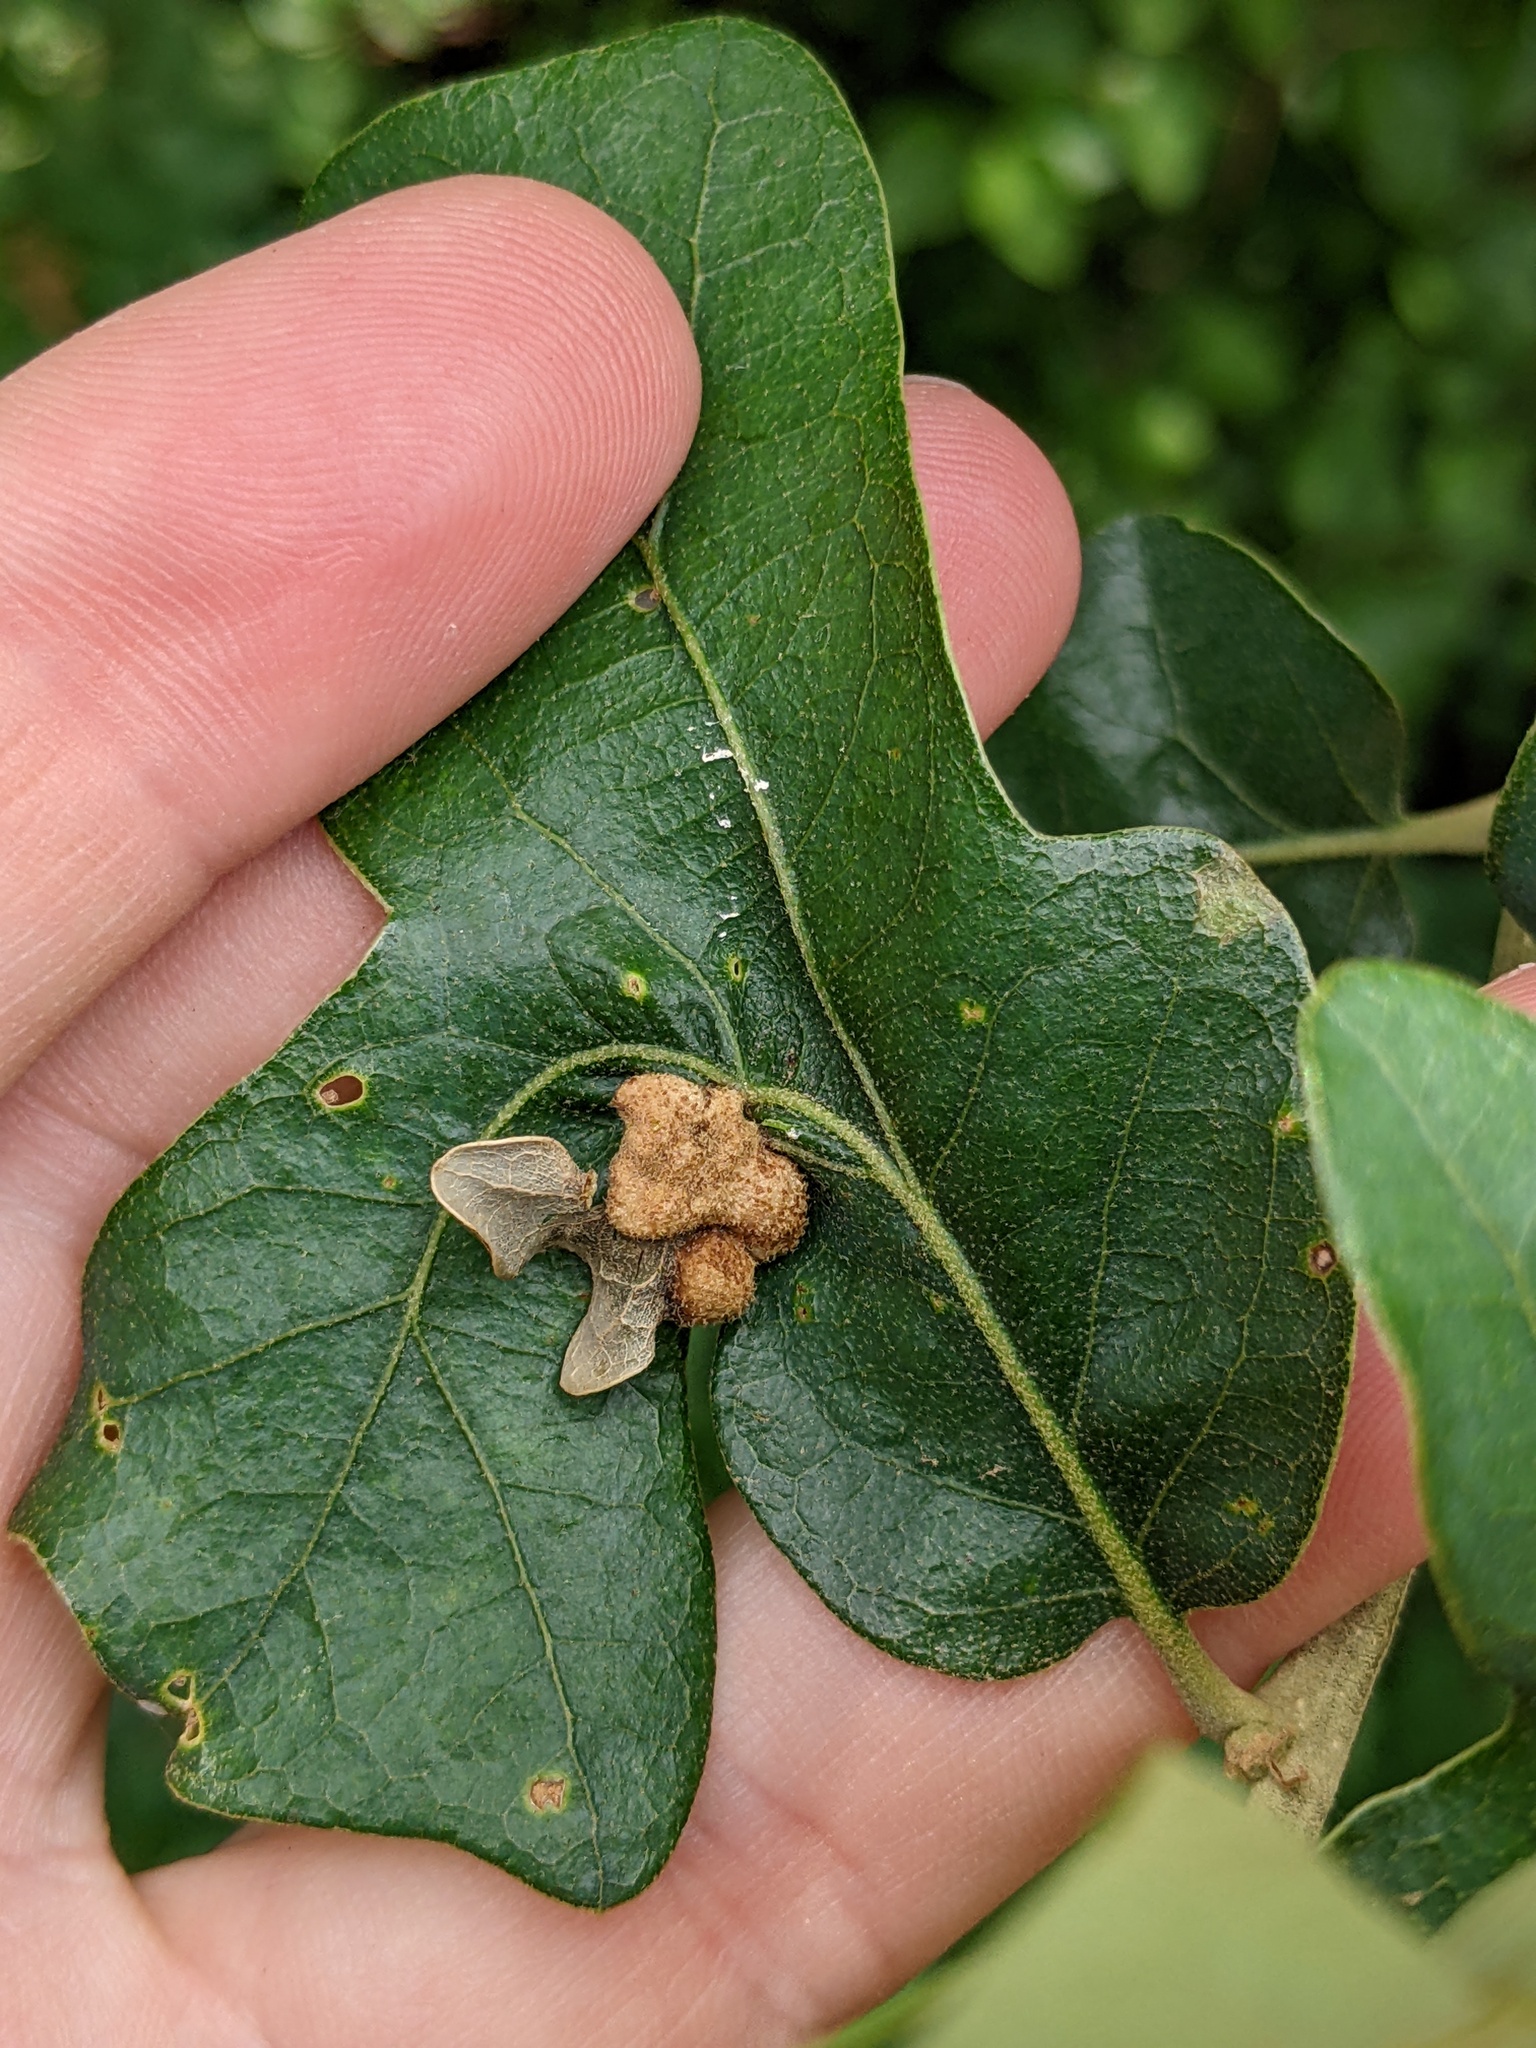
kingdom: Animalia
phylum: Arthropoda
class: Insecta
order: Hymenoptera
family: Cynipidae
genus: Neuroterus
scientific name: Neuroterus quercusirregularis
